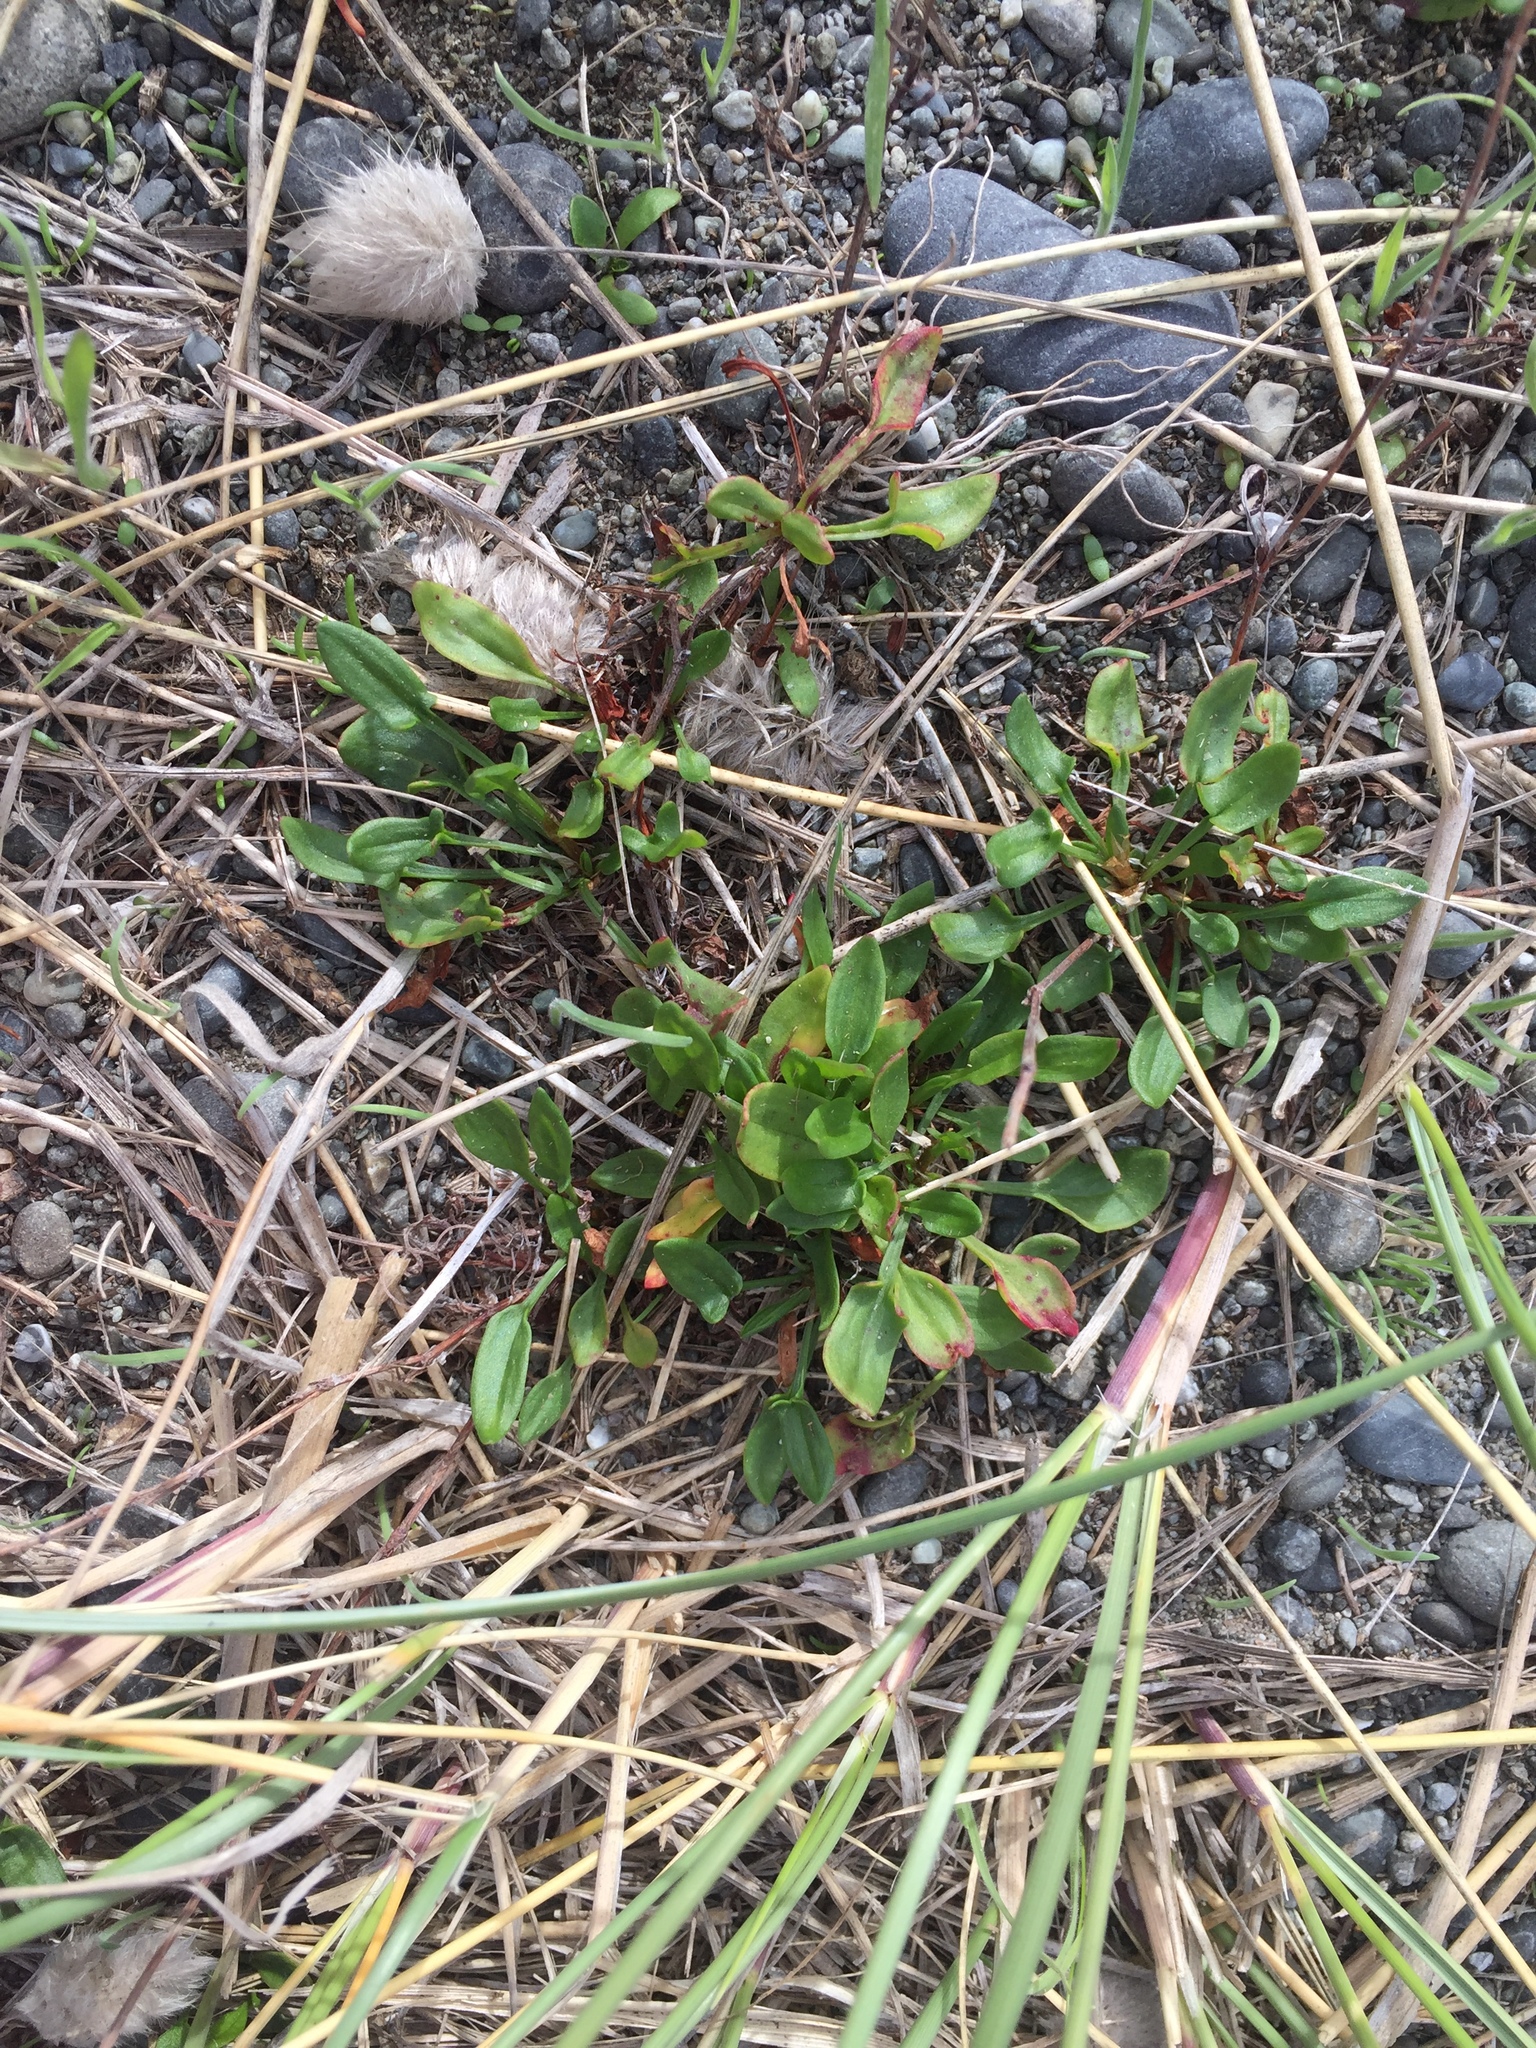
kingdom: Plantae
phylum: Tracheophyta
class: Magnoliopsida
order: Caryophyllales
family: Polygonaceae
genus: Rumex
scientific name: Rumex acetosella
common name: Common sheep sorrel
